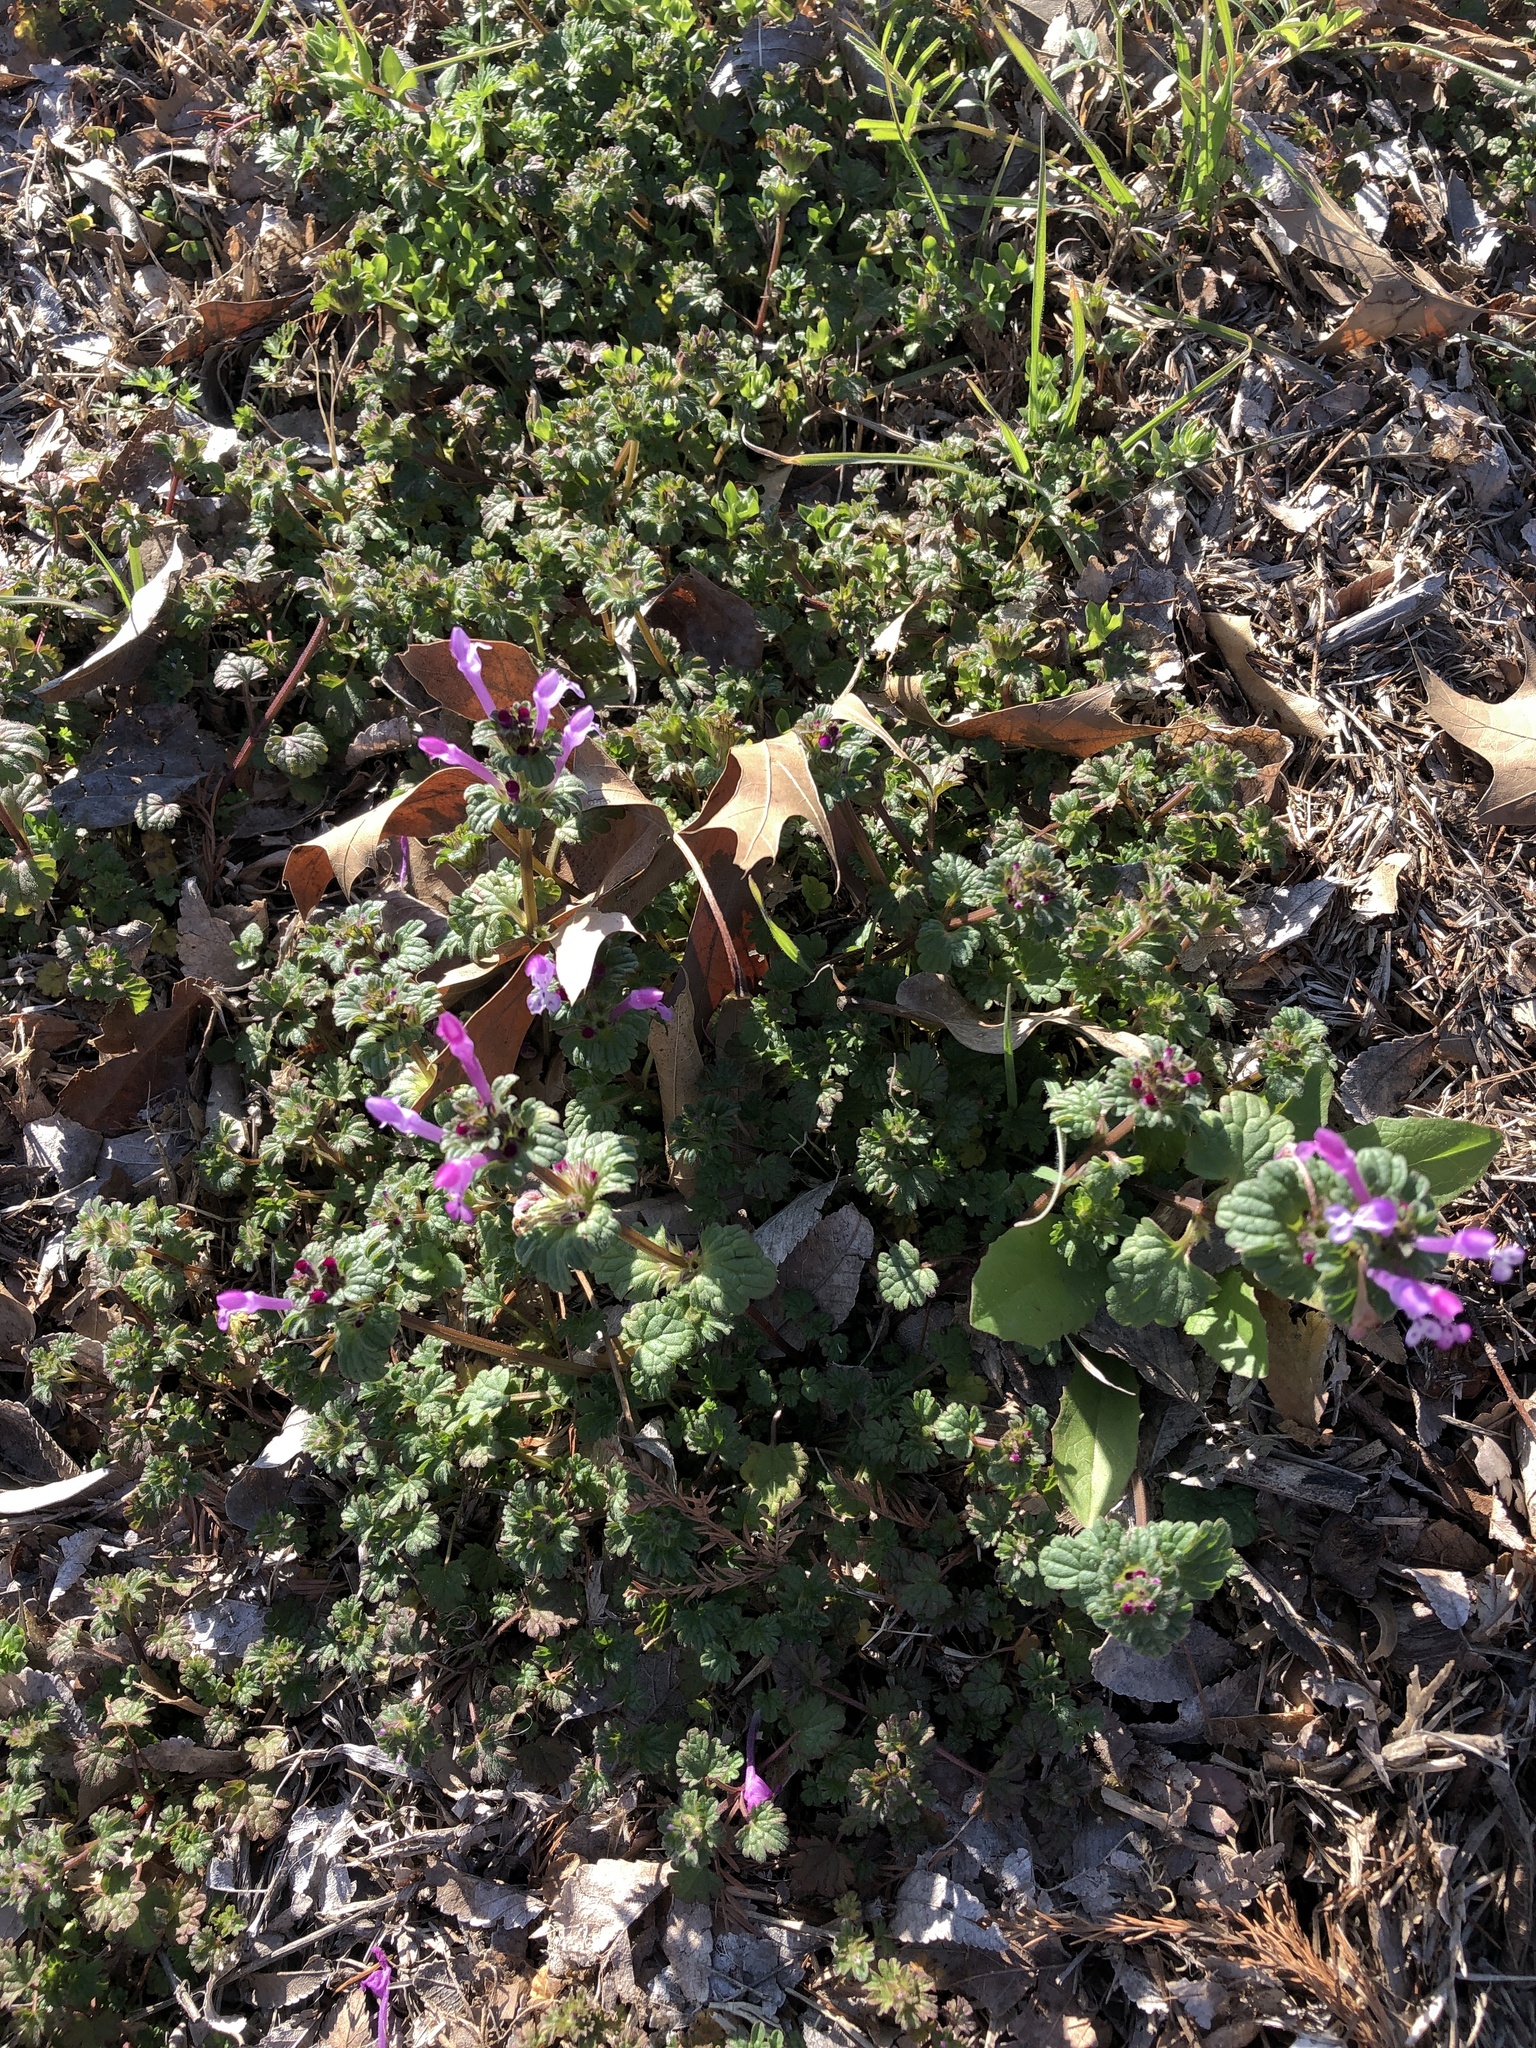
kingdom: Plantae
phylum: Tracheophyta
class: Magnoliopsida
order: Lamiales
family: Lamiaceae
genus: Lamium
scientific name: Lamium amplexicaule
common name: Henbit dead-nettle
